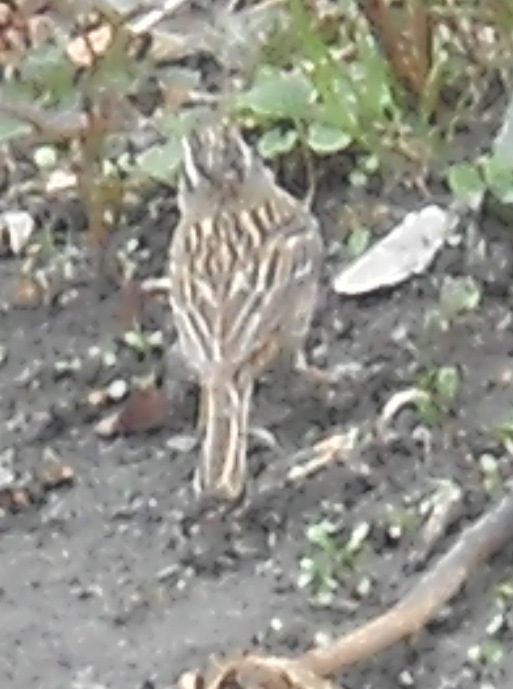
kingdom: Animalia
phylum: Chordata
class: Aves
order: Passeriformes
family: Emberizidae
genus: Emberiza
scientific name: Emberiza cia
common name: Rock bunting
